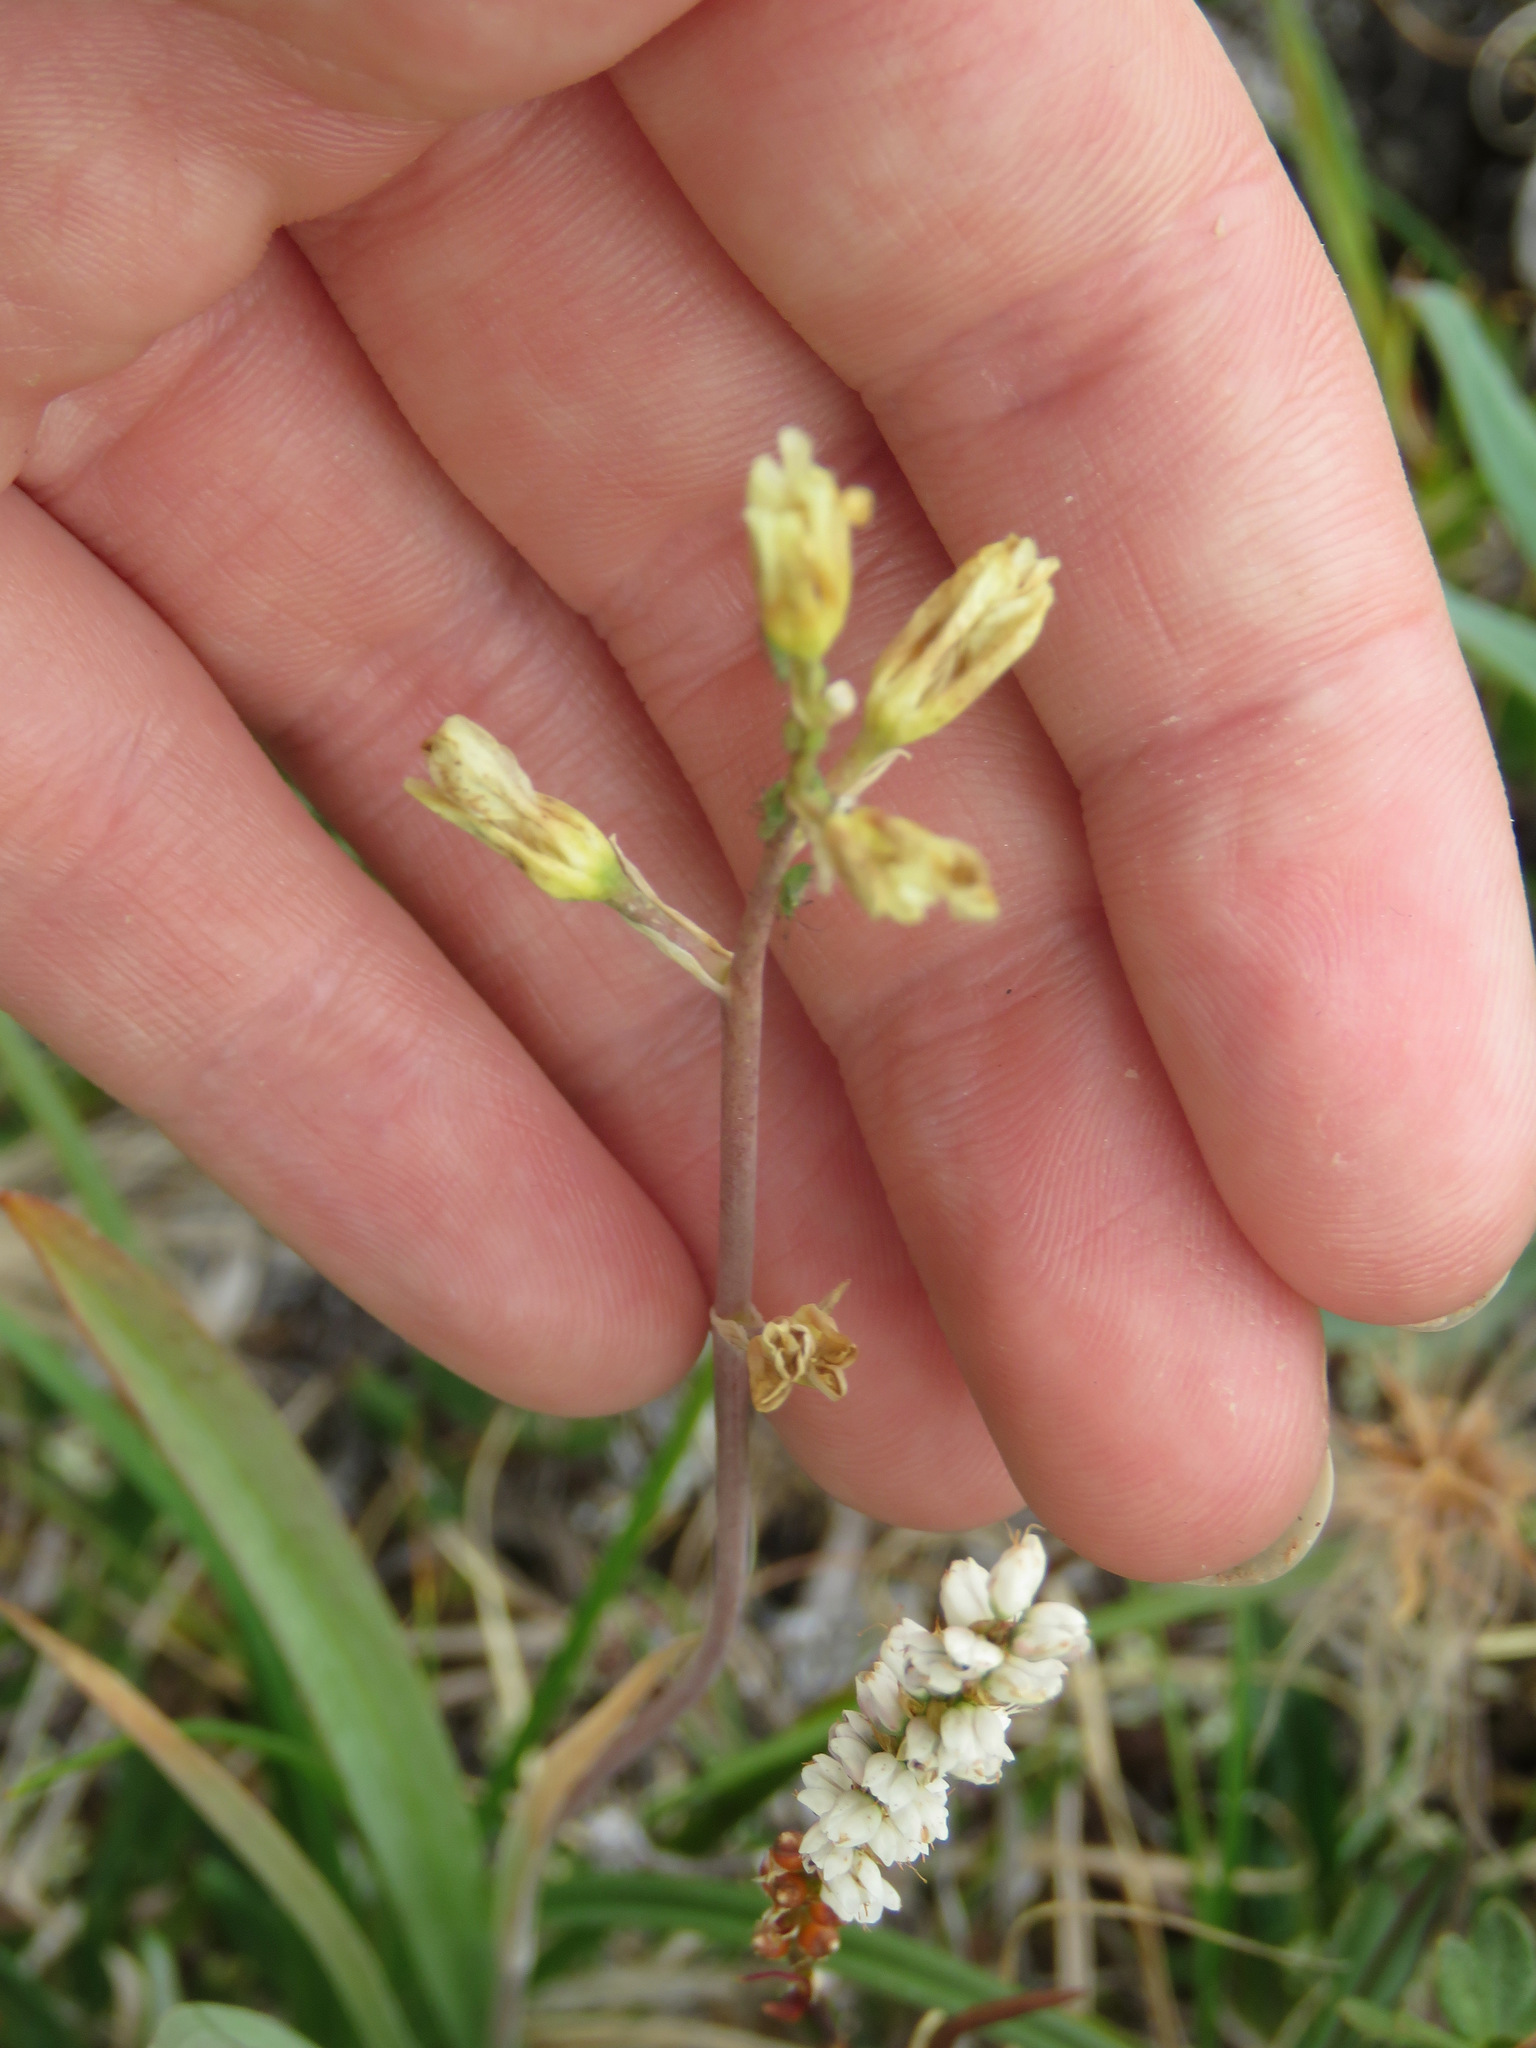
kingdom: Plantae
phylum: Tracheophyta
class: Liliopsida
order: Liliales
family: Melanthiaceae
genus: Anticlea
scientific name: Anticlea elegans
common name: Mountain death camas
